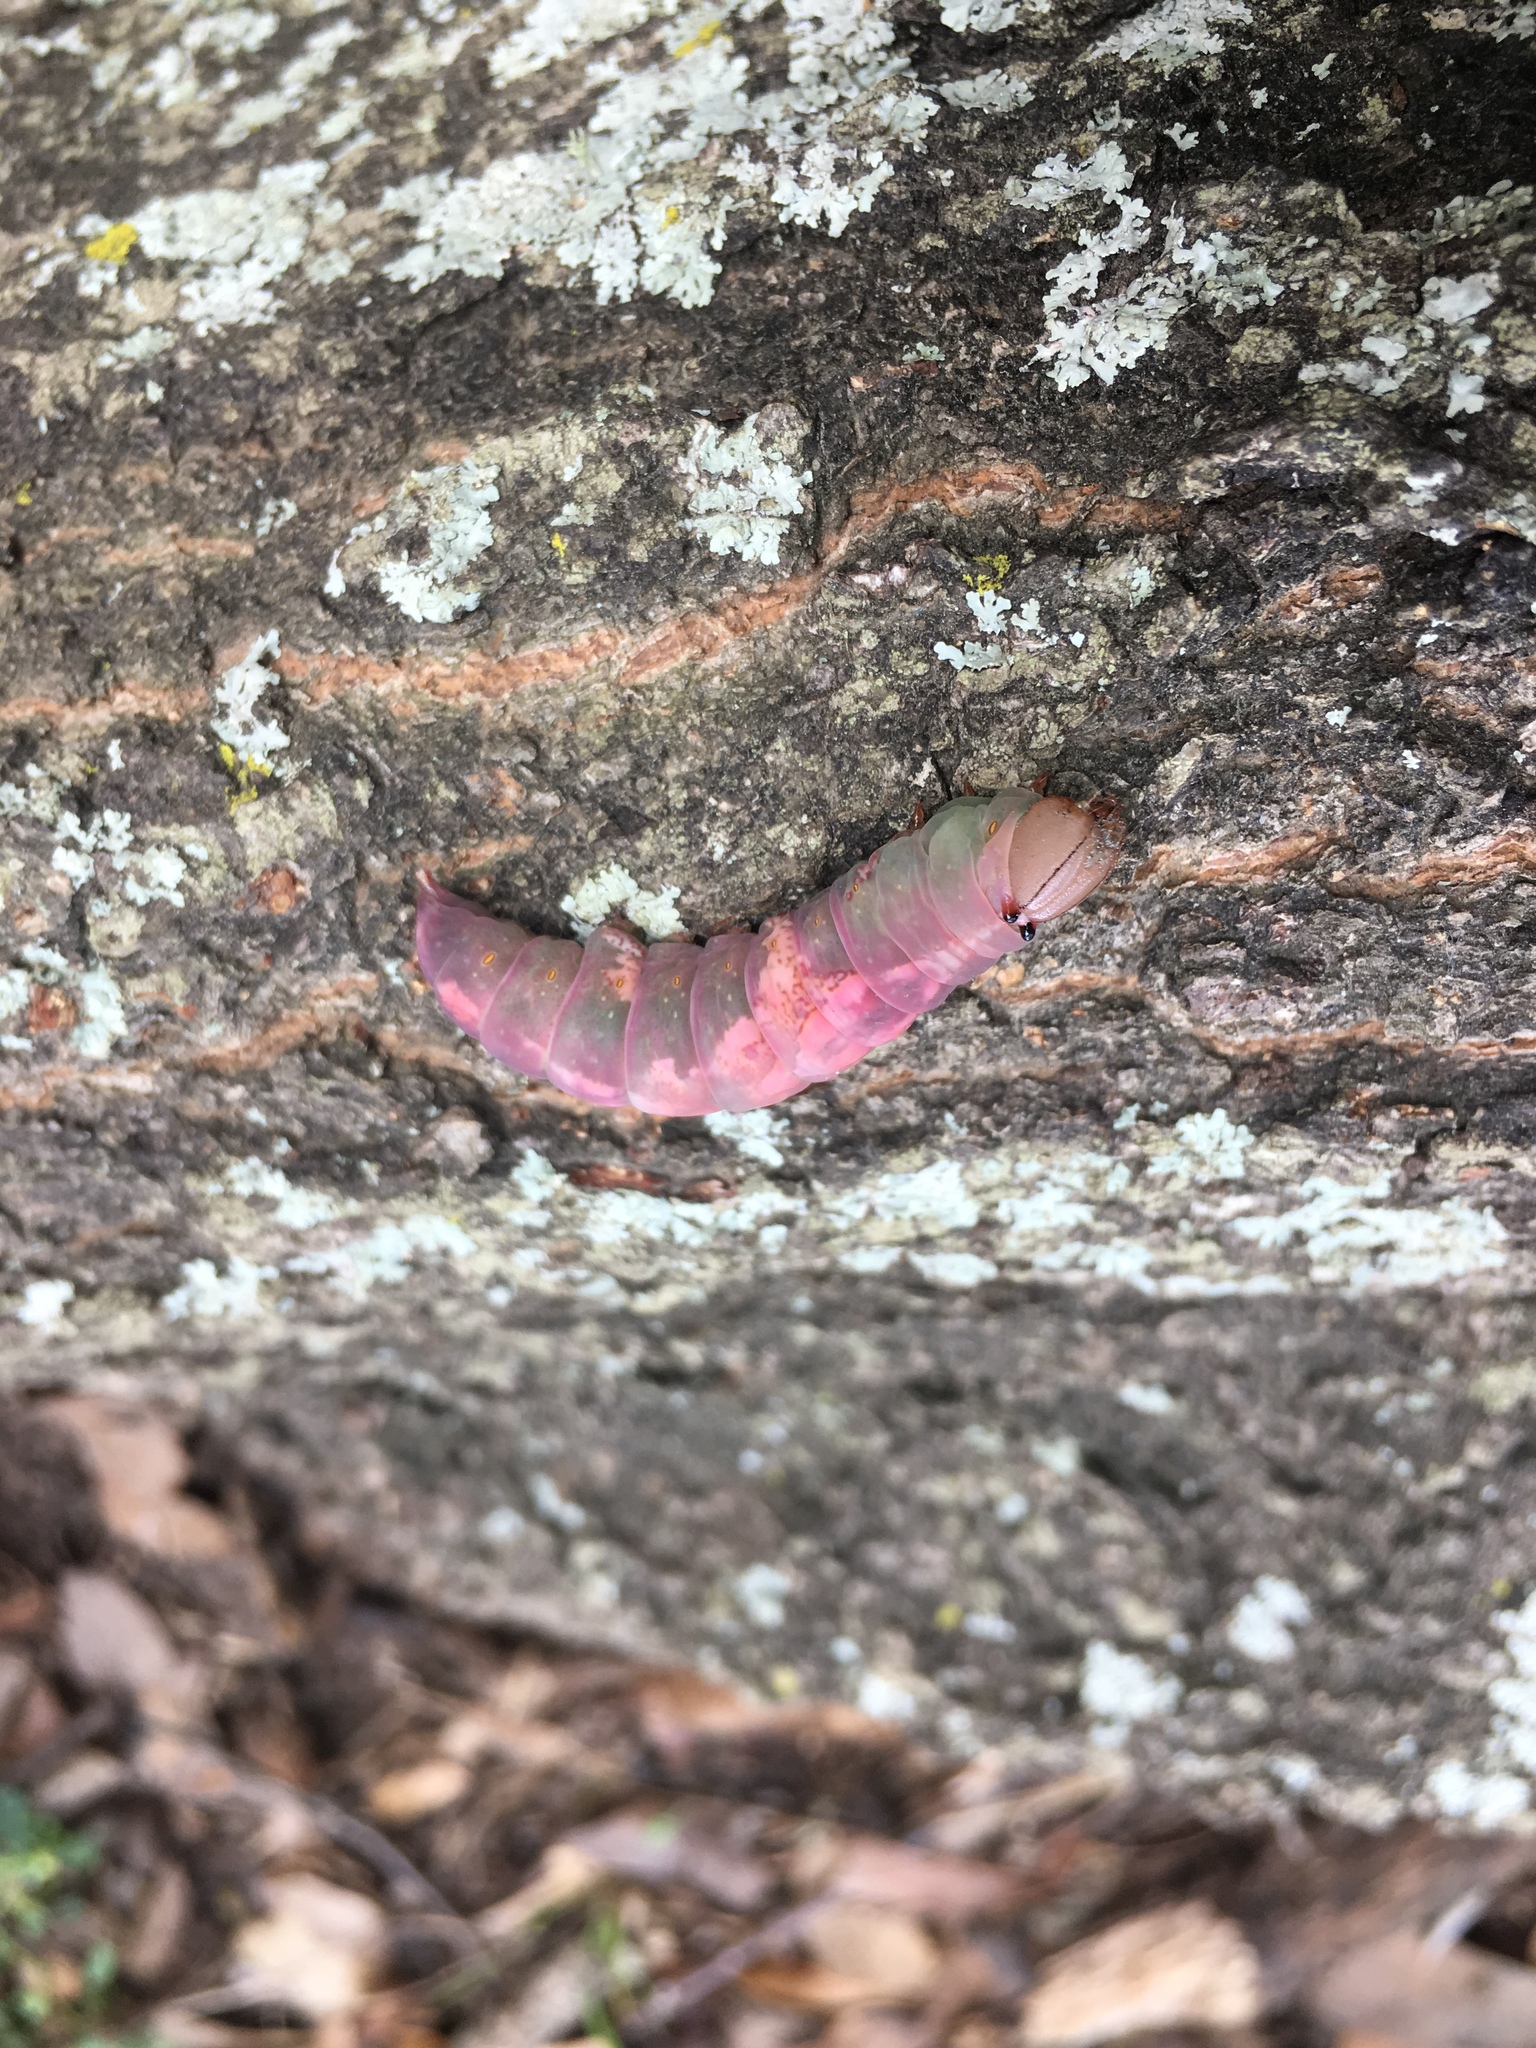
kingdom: Animalia
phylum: Arthropoda
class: Insecta
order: Lepidoptera
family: Notodontidae
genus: Heterocampa
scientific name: Heterocampa
